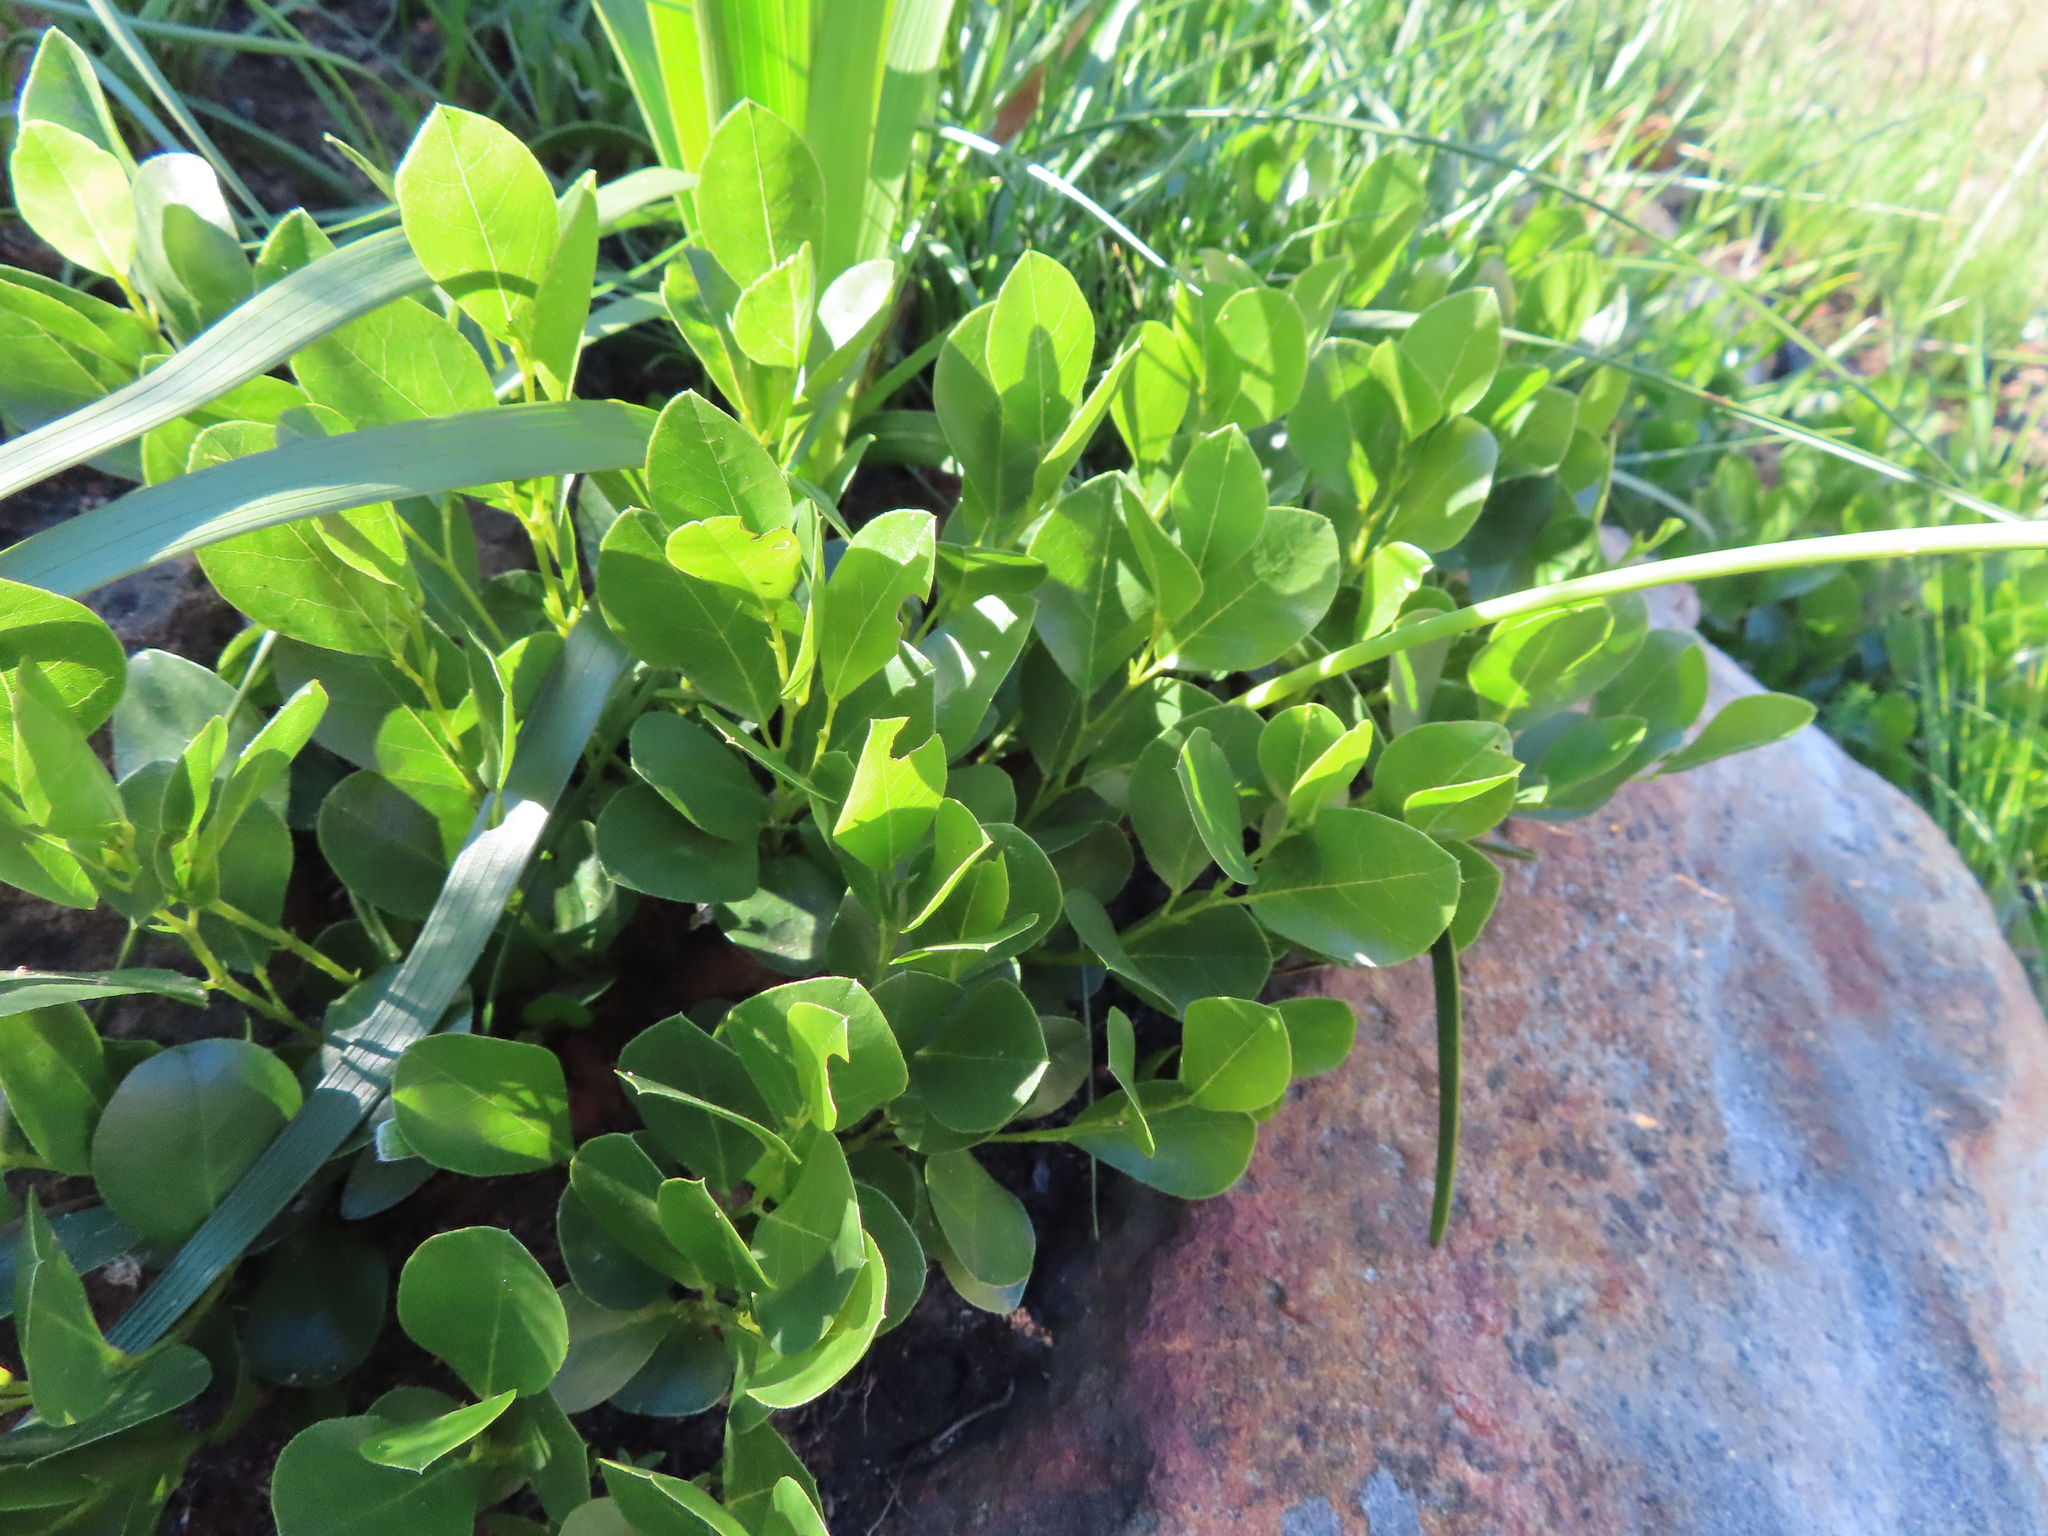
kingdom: Plantae
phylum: Tracheophyta
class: Magnoliopsida
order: Fabales
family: Fabaceae
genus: Psoralea
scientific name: Psoralea rotundifolia
